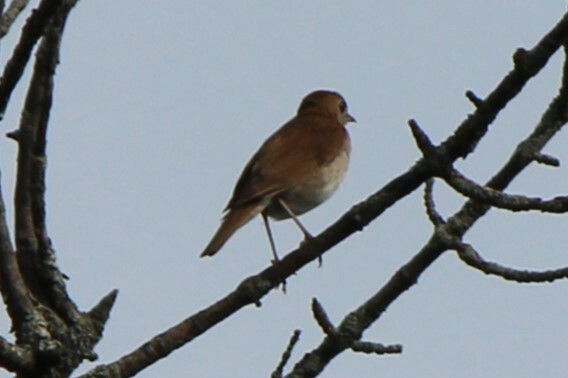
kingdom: Animalia
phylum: Chordata
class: Aves
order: Passeriformes
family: Turdidae
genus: Catharus
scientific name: Catharus fuscescens
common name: Veery
